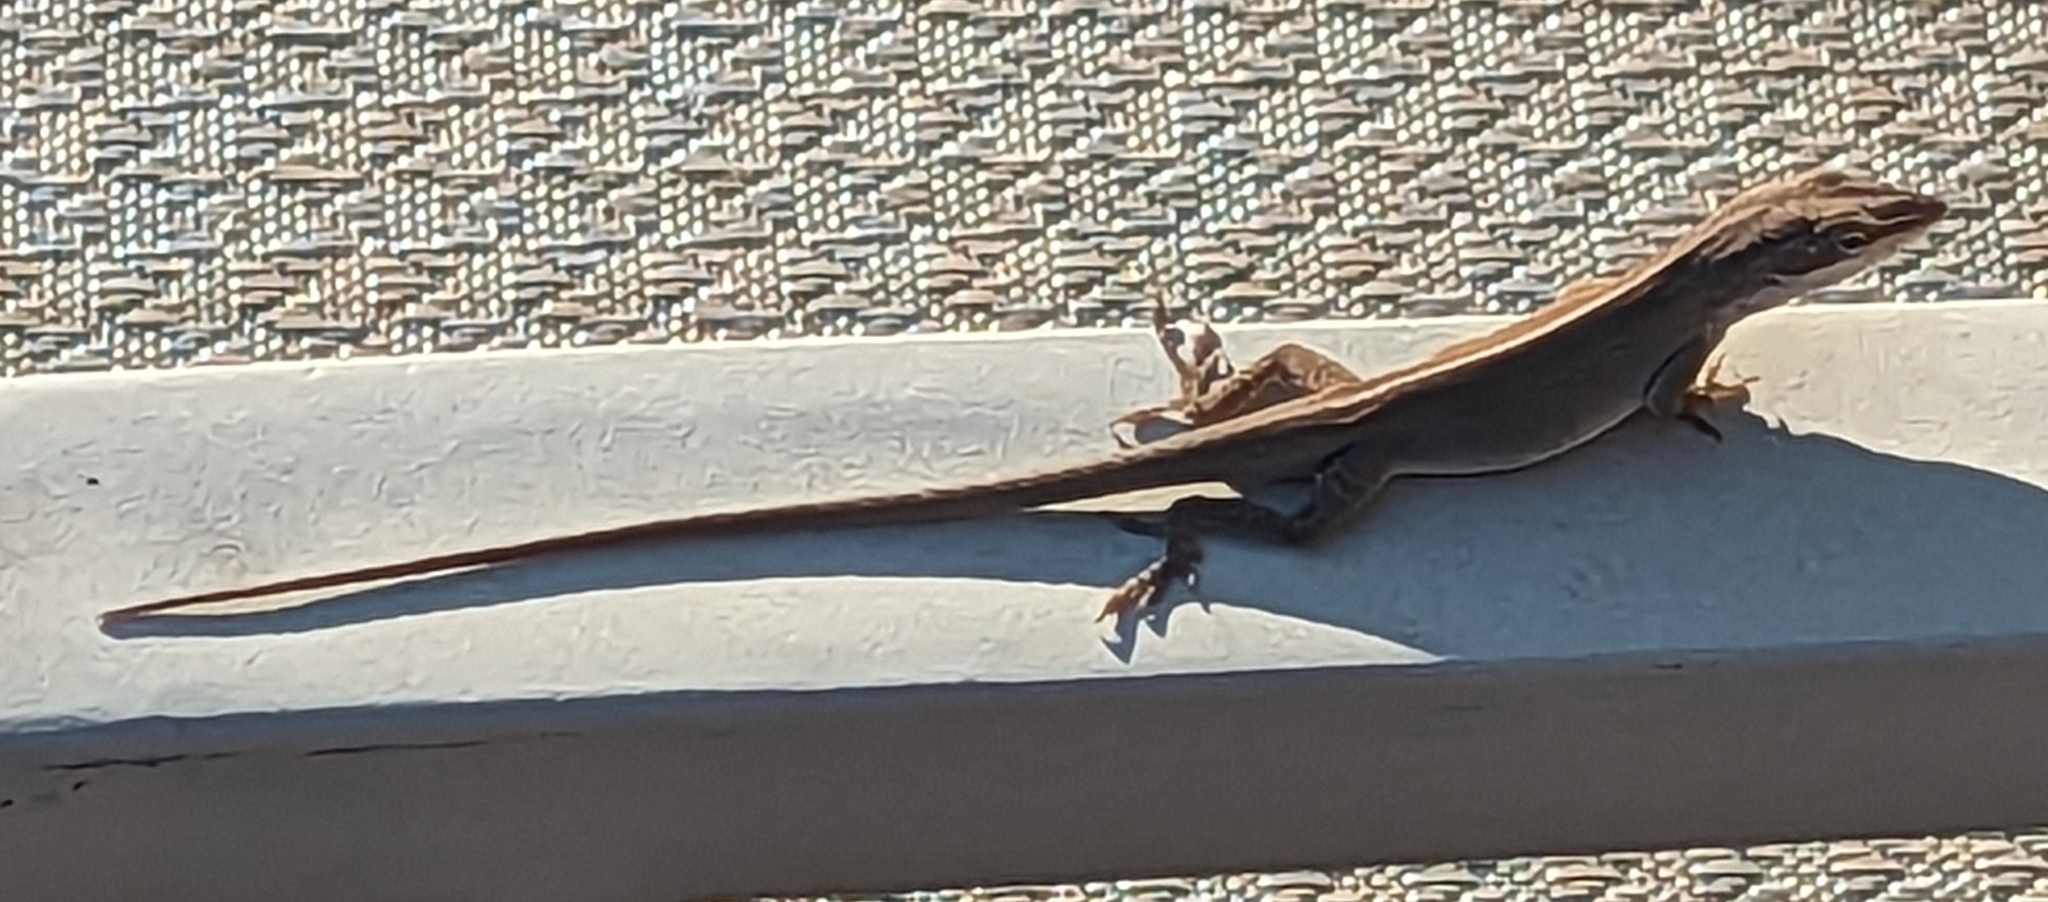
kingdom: Animalia
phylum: Chordata
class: Squamata
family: Dactyloidae
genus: Anolis
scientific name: Anolis carolinensis
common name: Green anole
